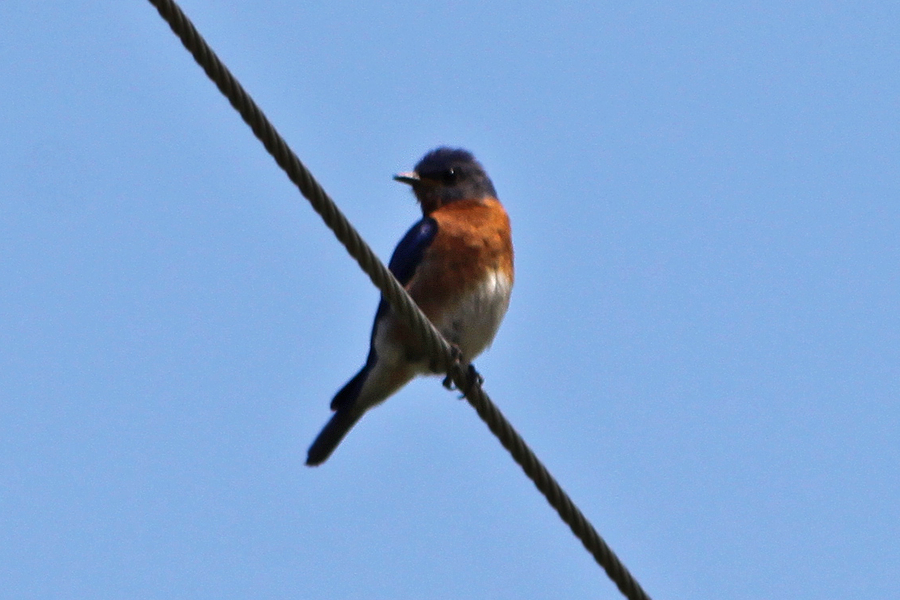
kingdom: Animalia
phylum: Chordata
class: Aves
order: Passeriformes
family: Turdidae
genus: Sialia
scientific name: Sialia sialis
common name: Eastern bluebird
